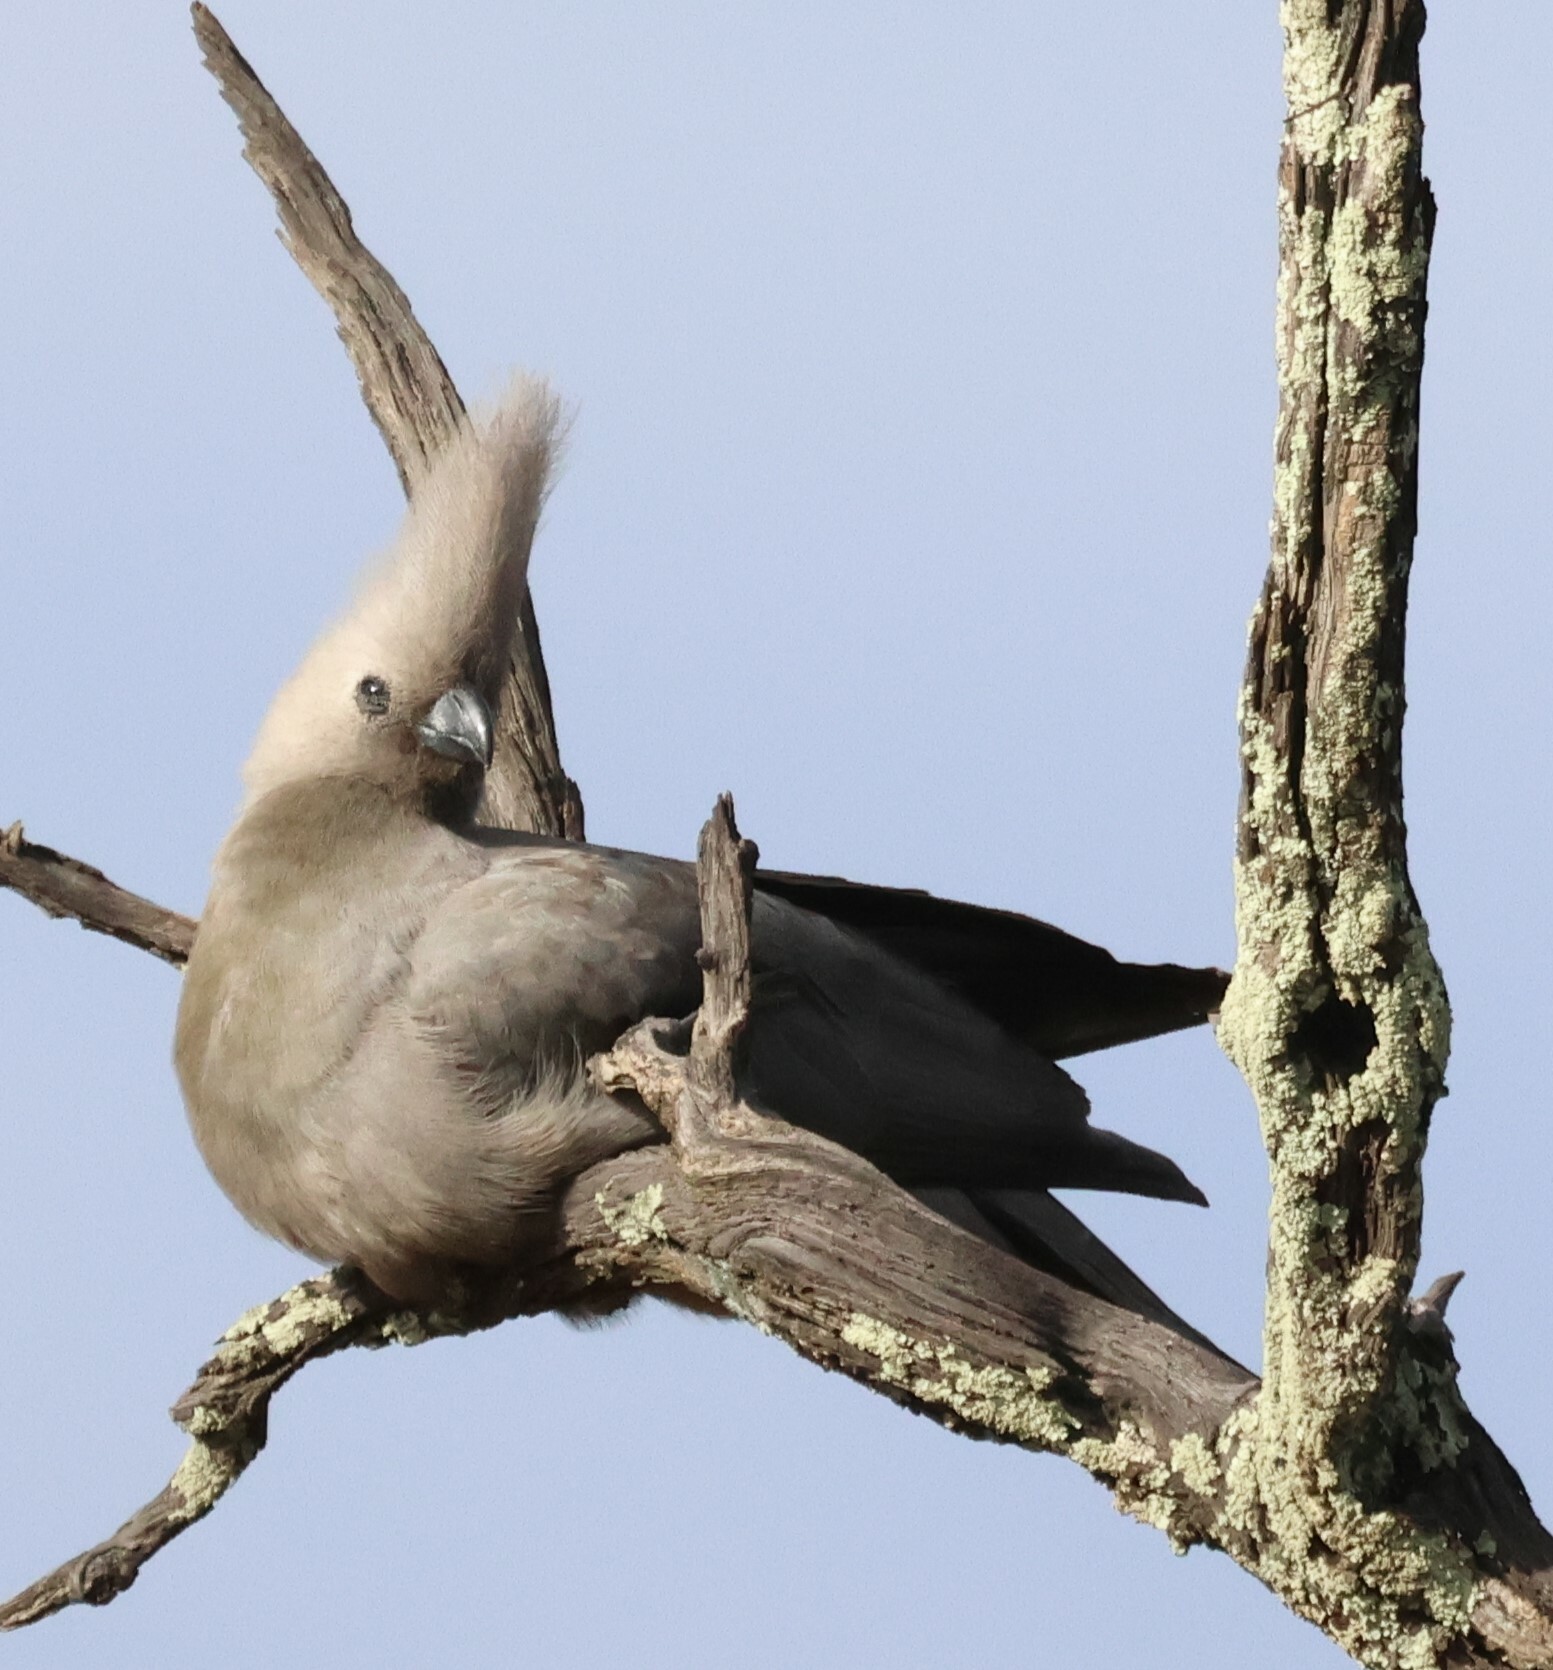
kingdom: Animalia
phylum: Chordata
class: Aves
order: Musophagiformes
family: Musophagidae
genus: Corythaixoides
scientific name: Corythaixoides concolor
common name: Grey go-away-bird
